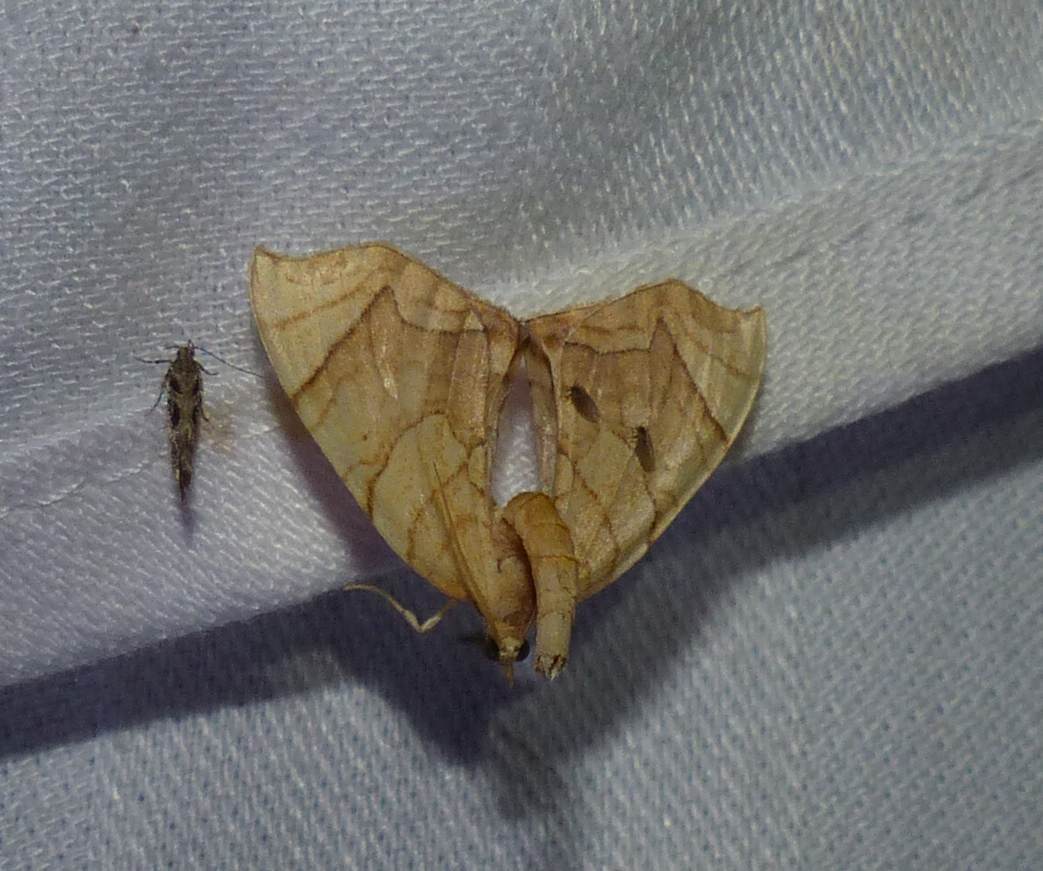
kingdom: Animalia
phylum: Arthropoda
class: Insecta
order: Lepidoptera
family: Geometridae
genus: Eulithis
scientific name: Eulithis
